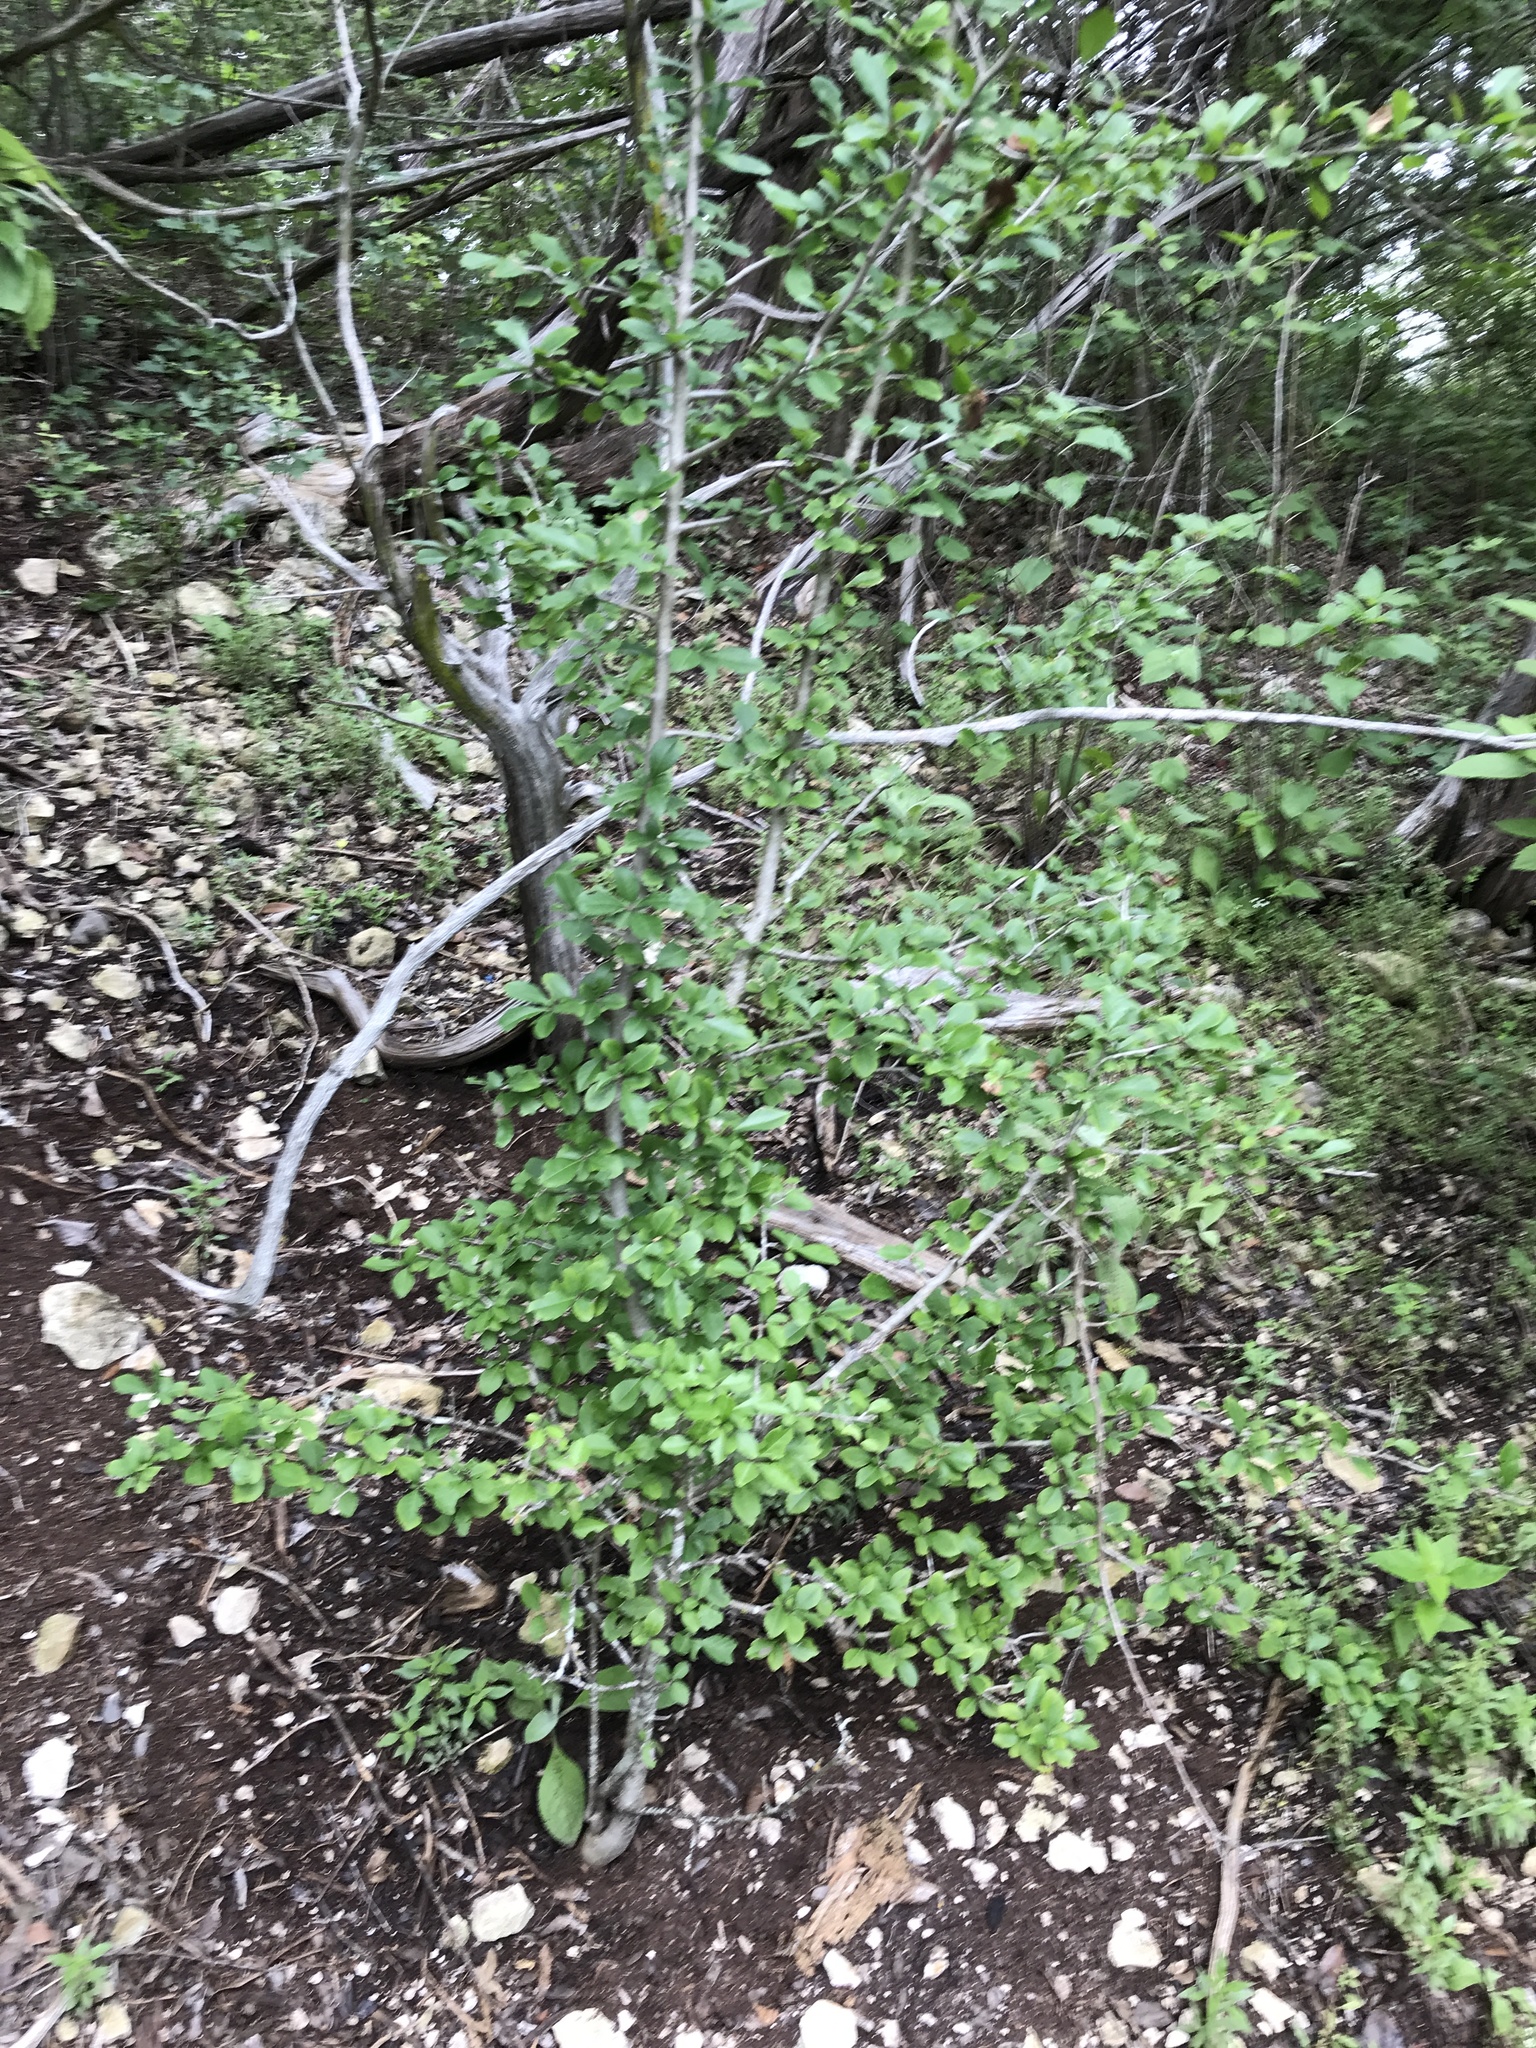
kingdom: Plantae
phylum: Tracheophyta
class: Magnoliopsida
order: Aquifoliales
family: Aquifoliaceae
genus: Ilex
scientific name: Ilex decidua
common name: Possum-haw
